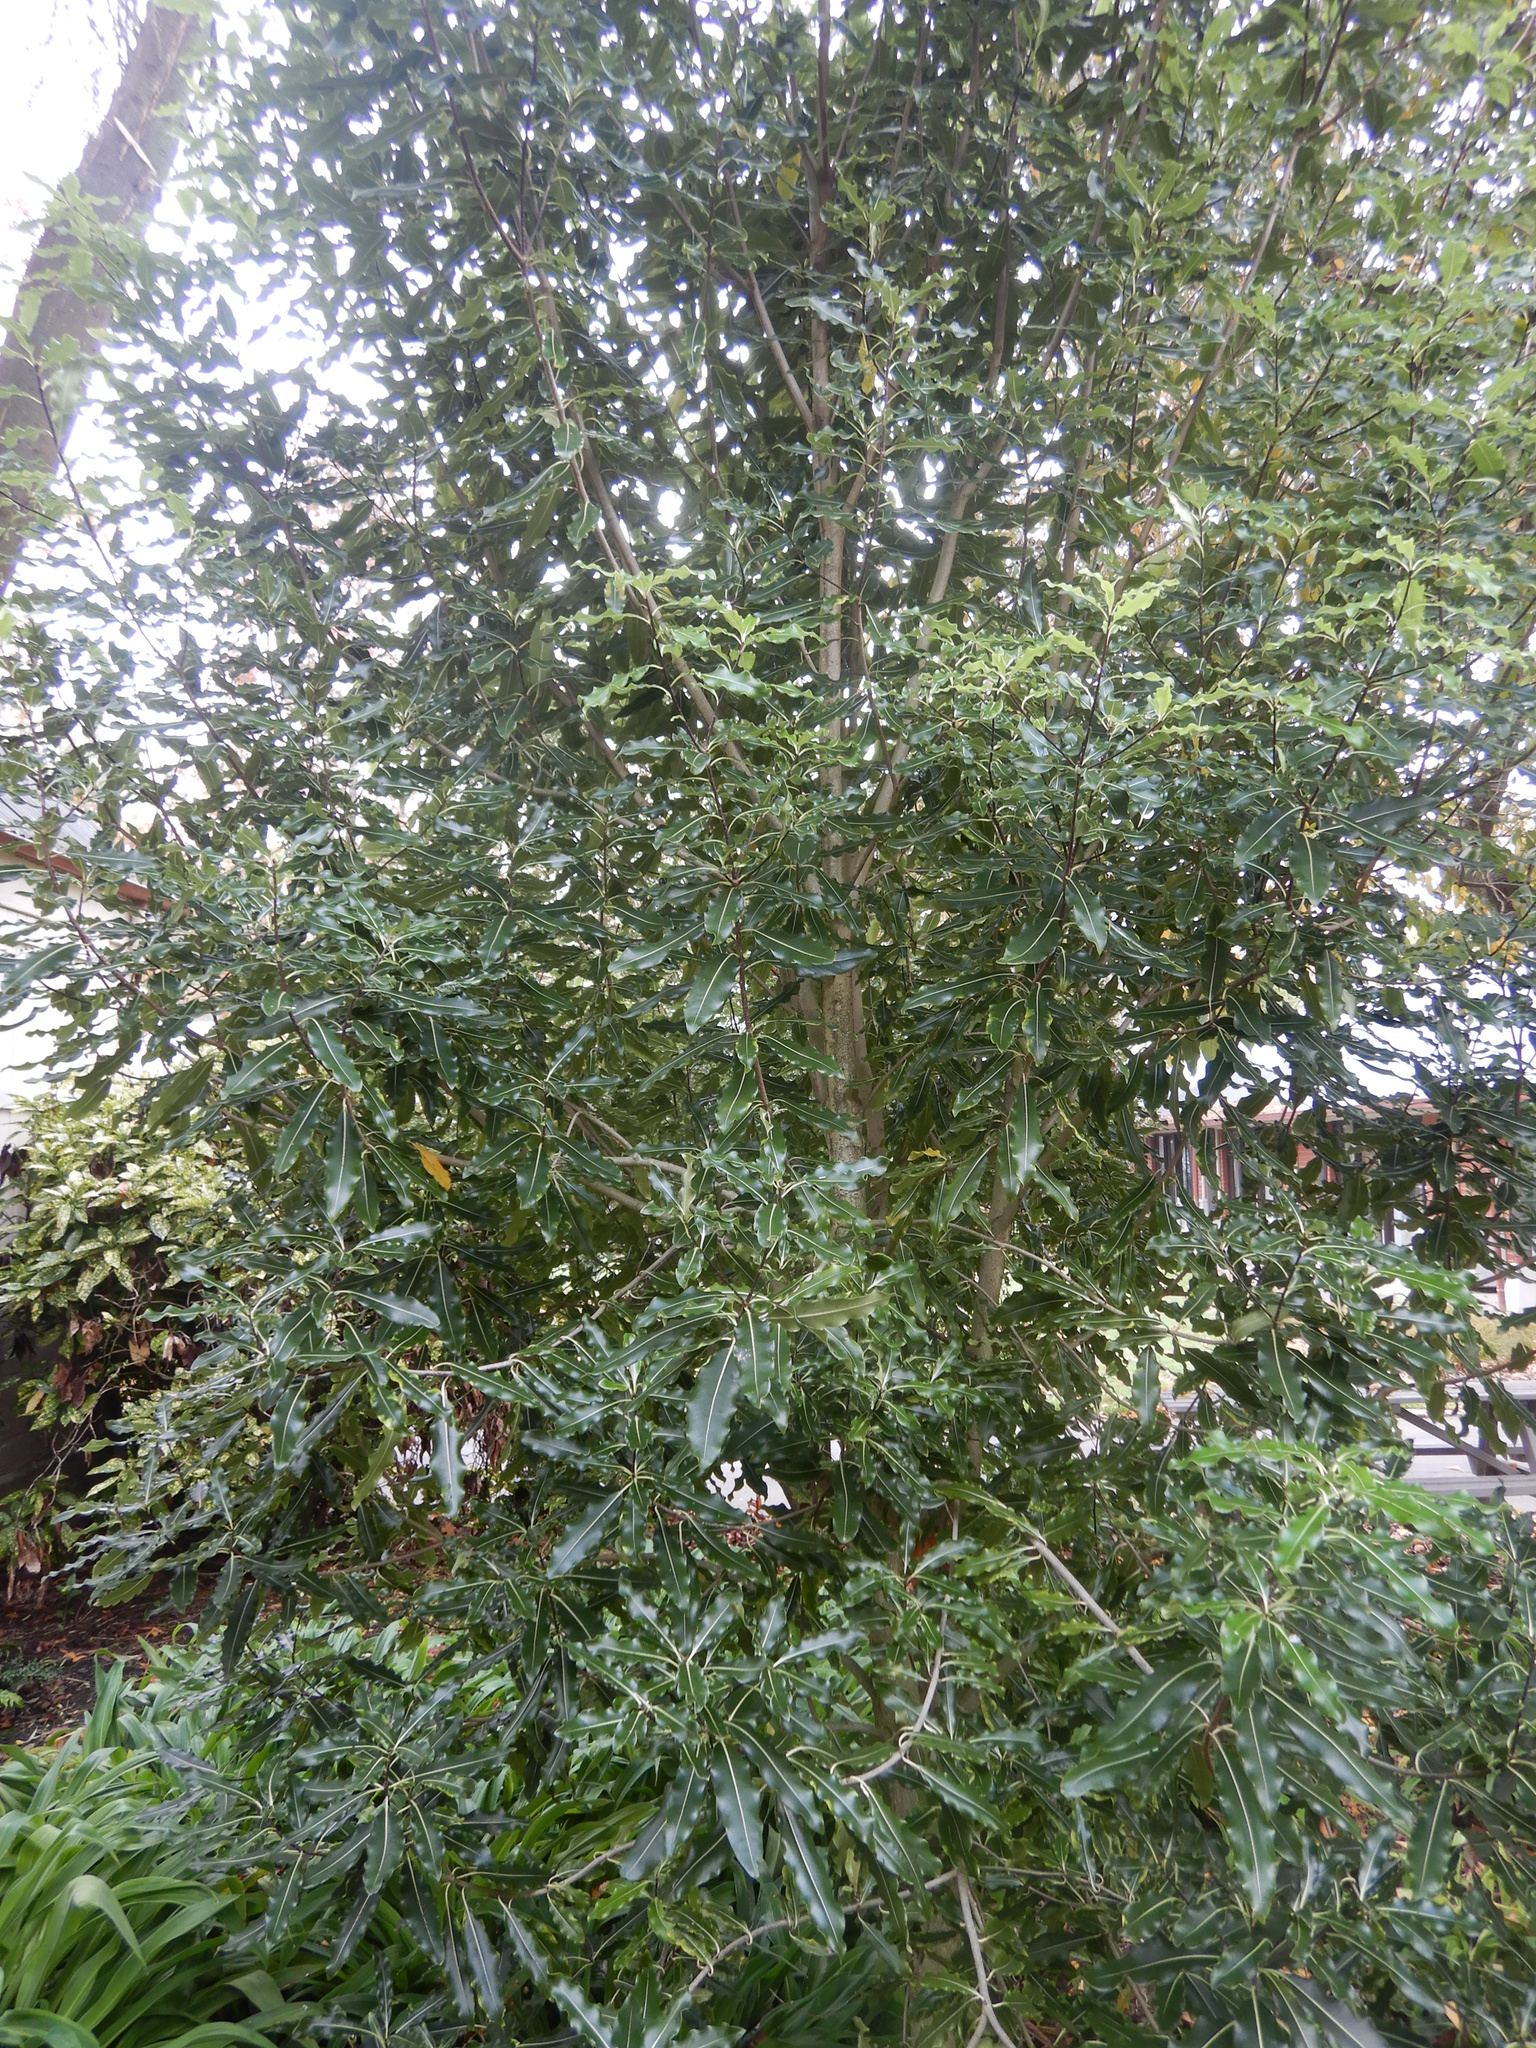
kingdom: Plantae
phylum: Tracheophyta
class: Magnoliopsida
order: Apiales
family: Pittosporaceae
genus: Pittosporum
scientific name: Pittosporum eugenioides
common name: Lemonwood
